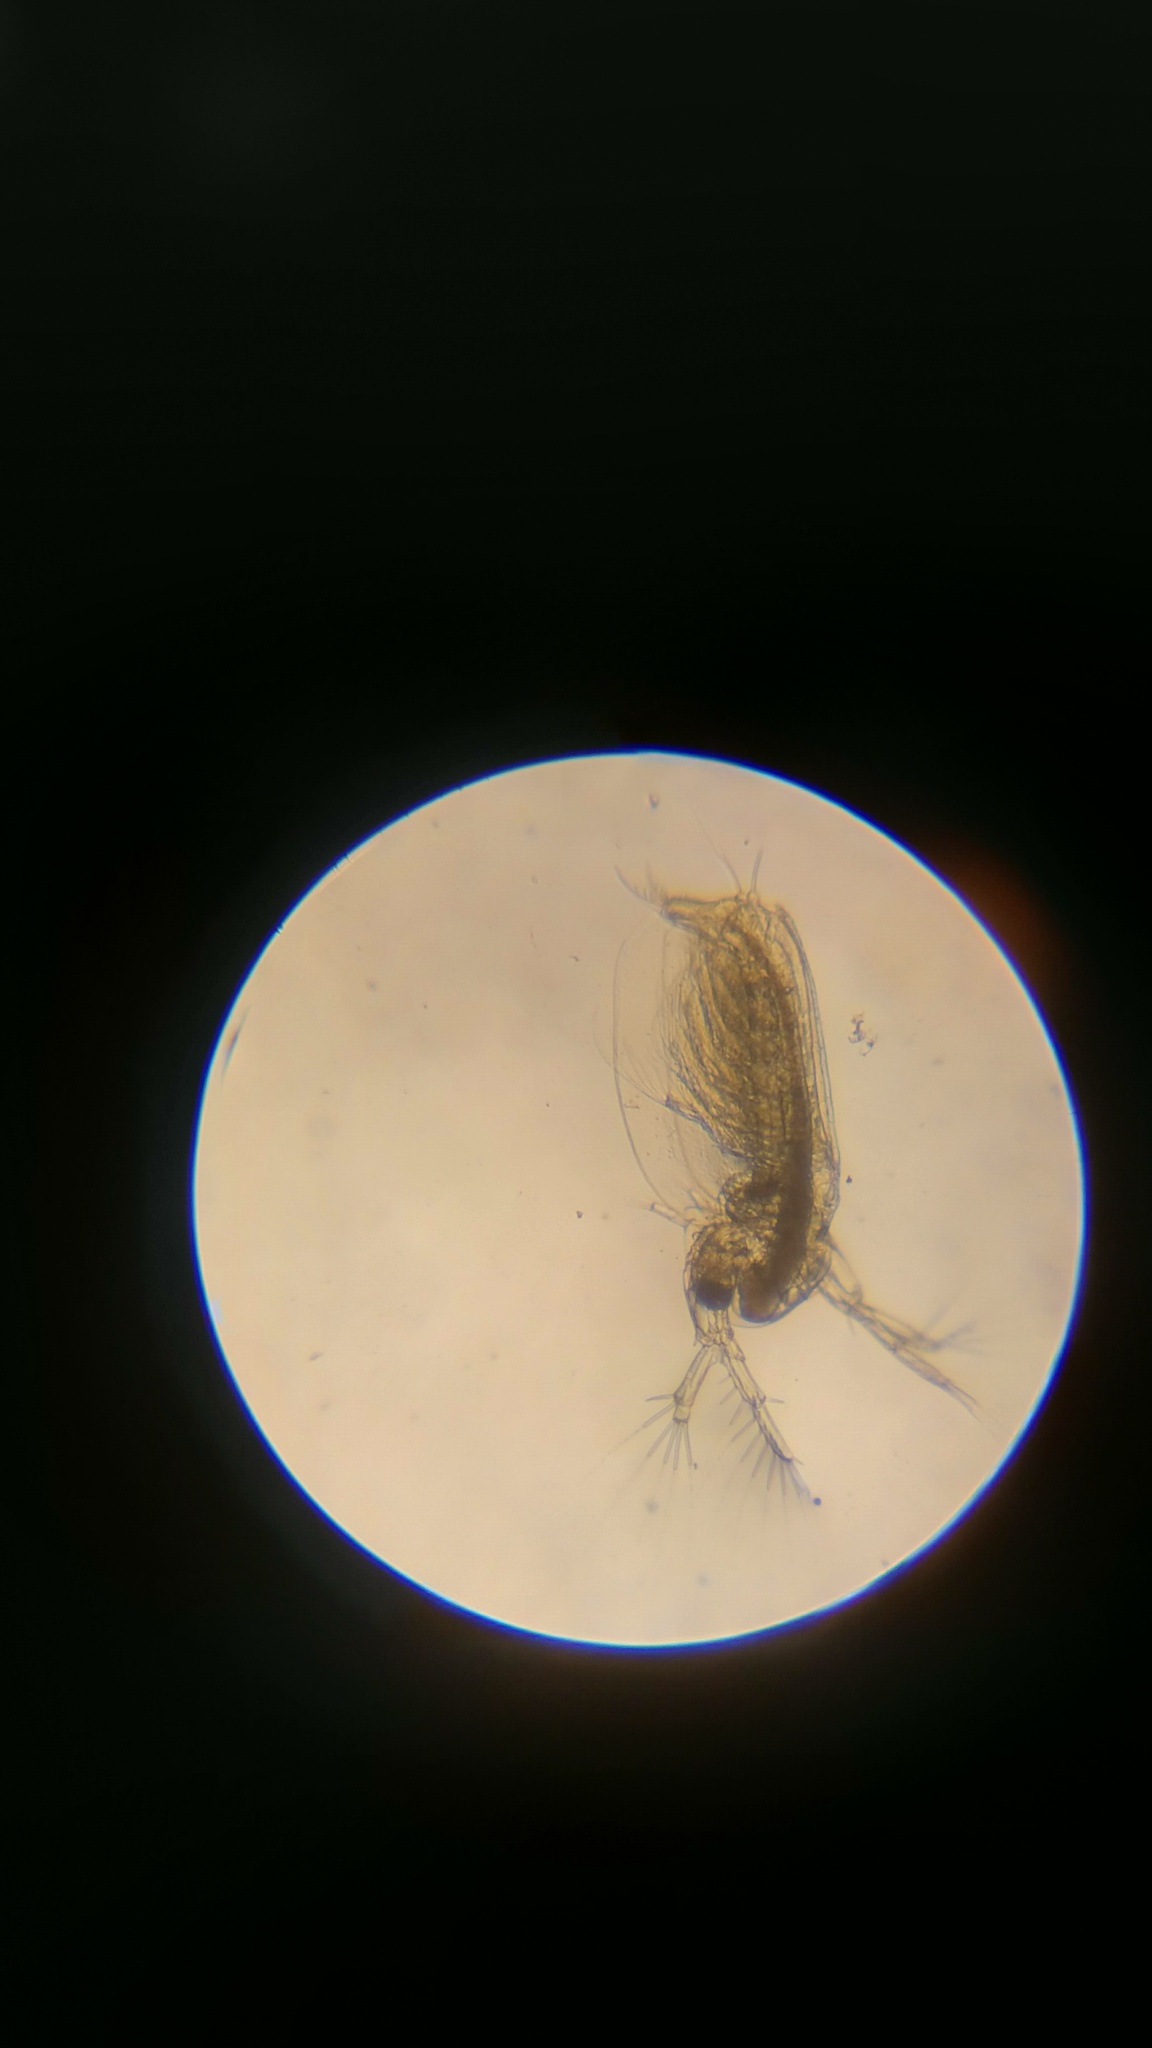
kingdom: Animalia
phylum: Arthropoda
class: Branchiopoda
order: Diplostraca
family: Sididae
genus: Sida
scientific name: Sida crystallina
